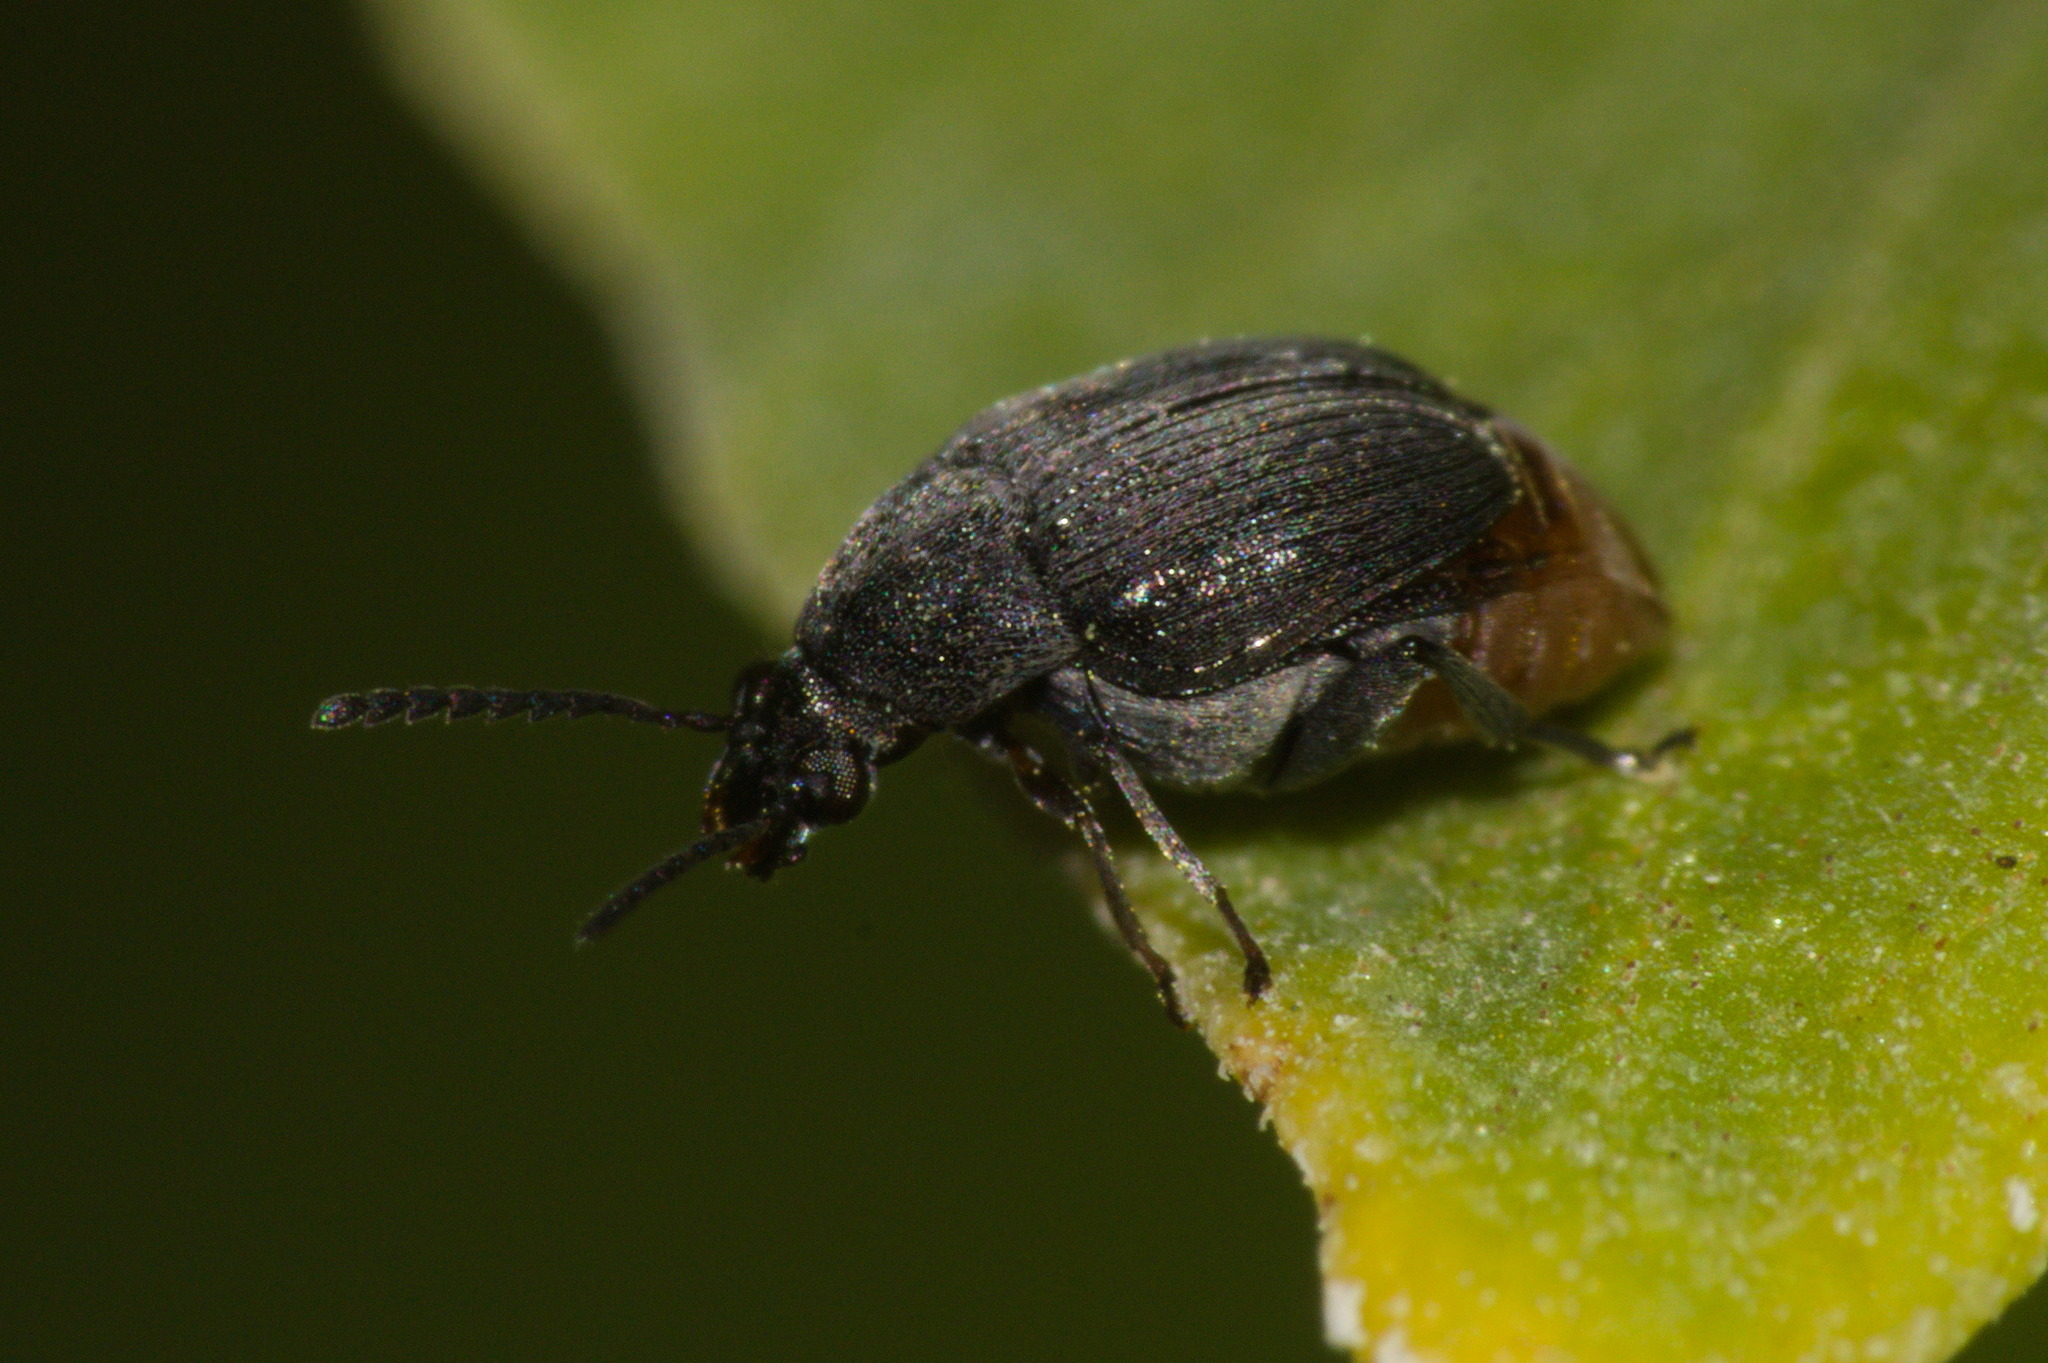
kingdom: Animalia
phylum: Arthropoda
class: Insecta
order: Coleoptera
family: Chrysomelidae
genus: Bruchidius
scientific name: Bruchidius siliquastri
